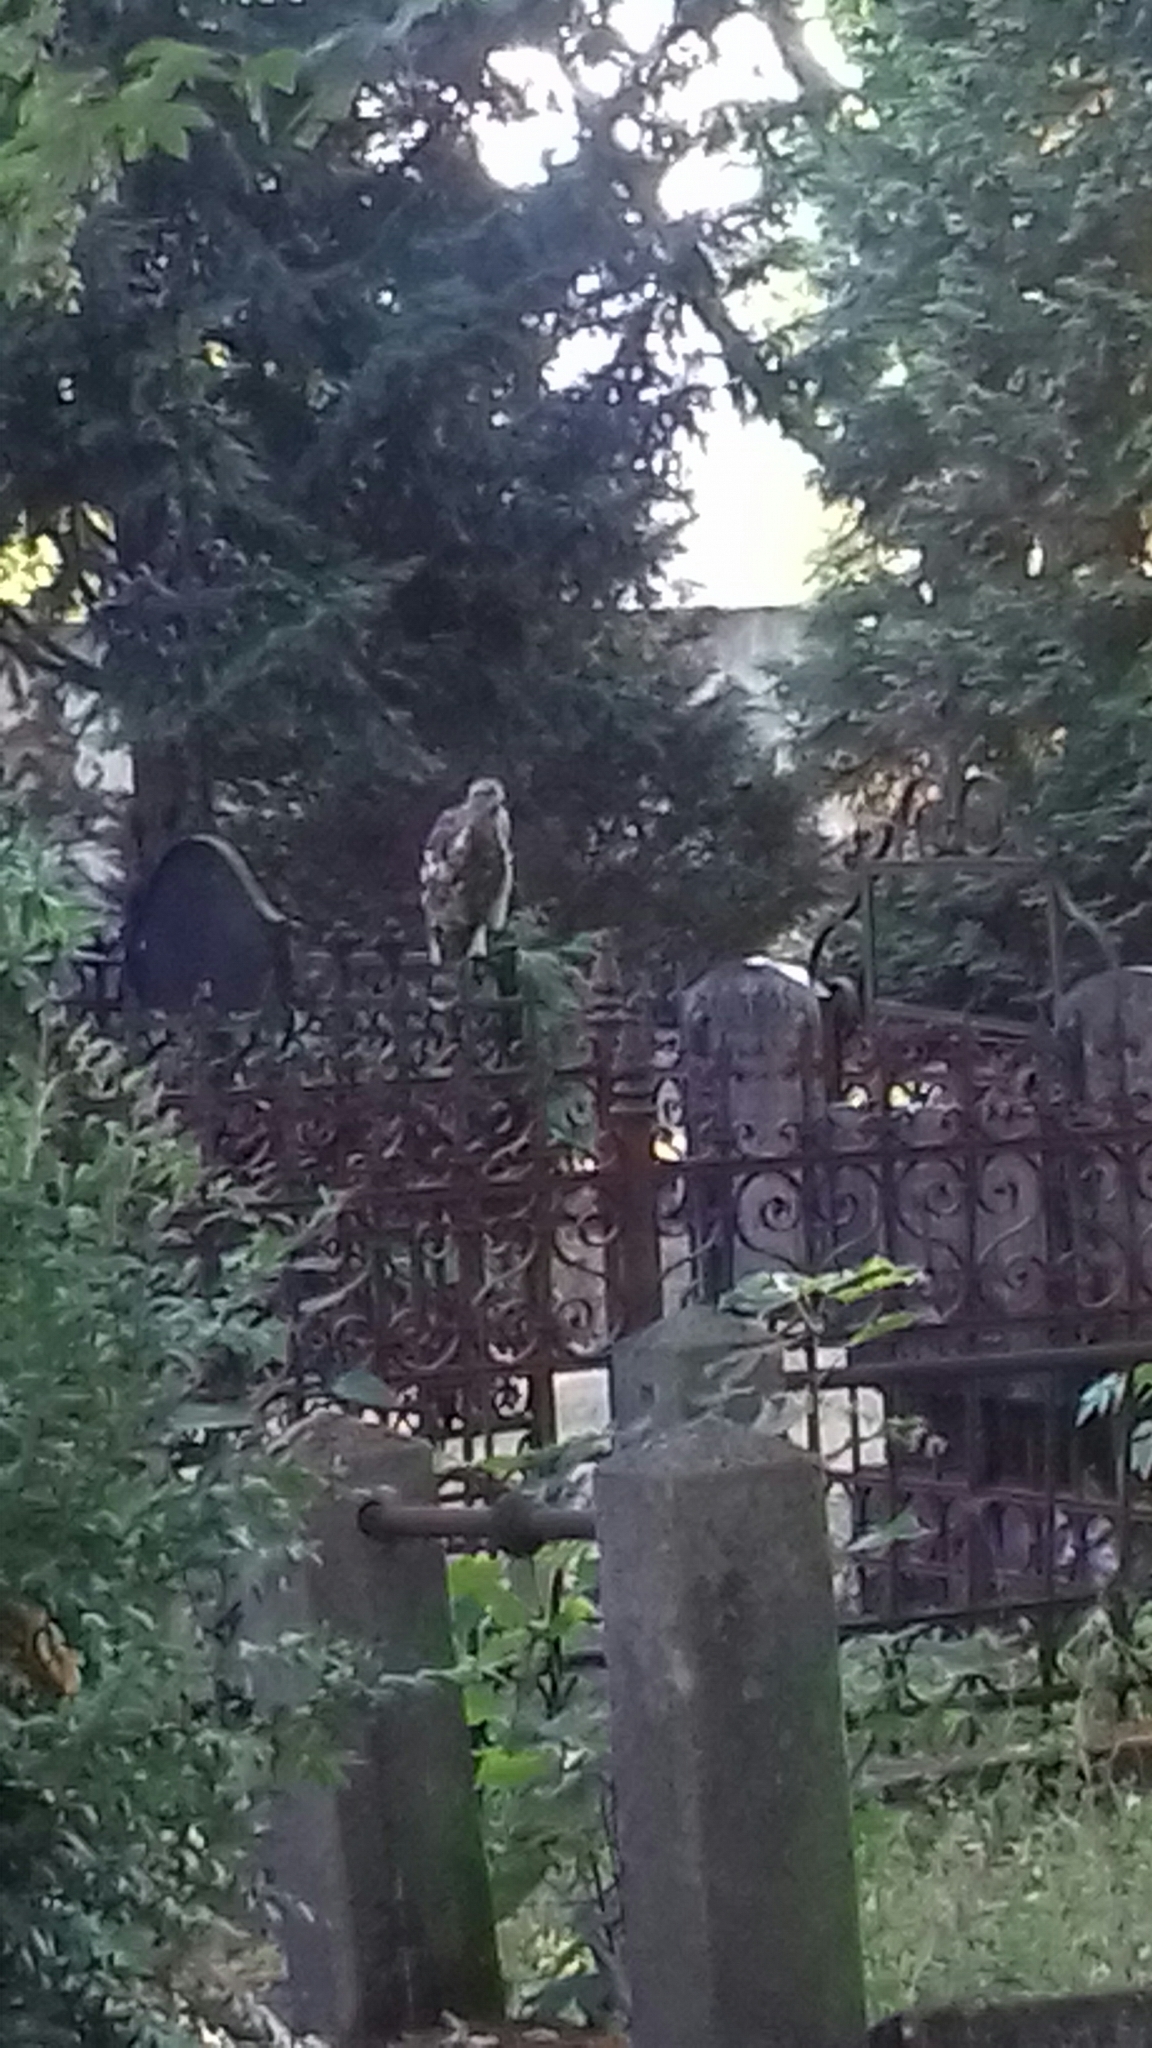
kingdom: Animalia
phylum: Chordata
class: Aves
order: Accipitriformes
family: Accipitridae
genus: Accipiter
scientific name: Accipiter gentilis
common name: Northern goshawk
